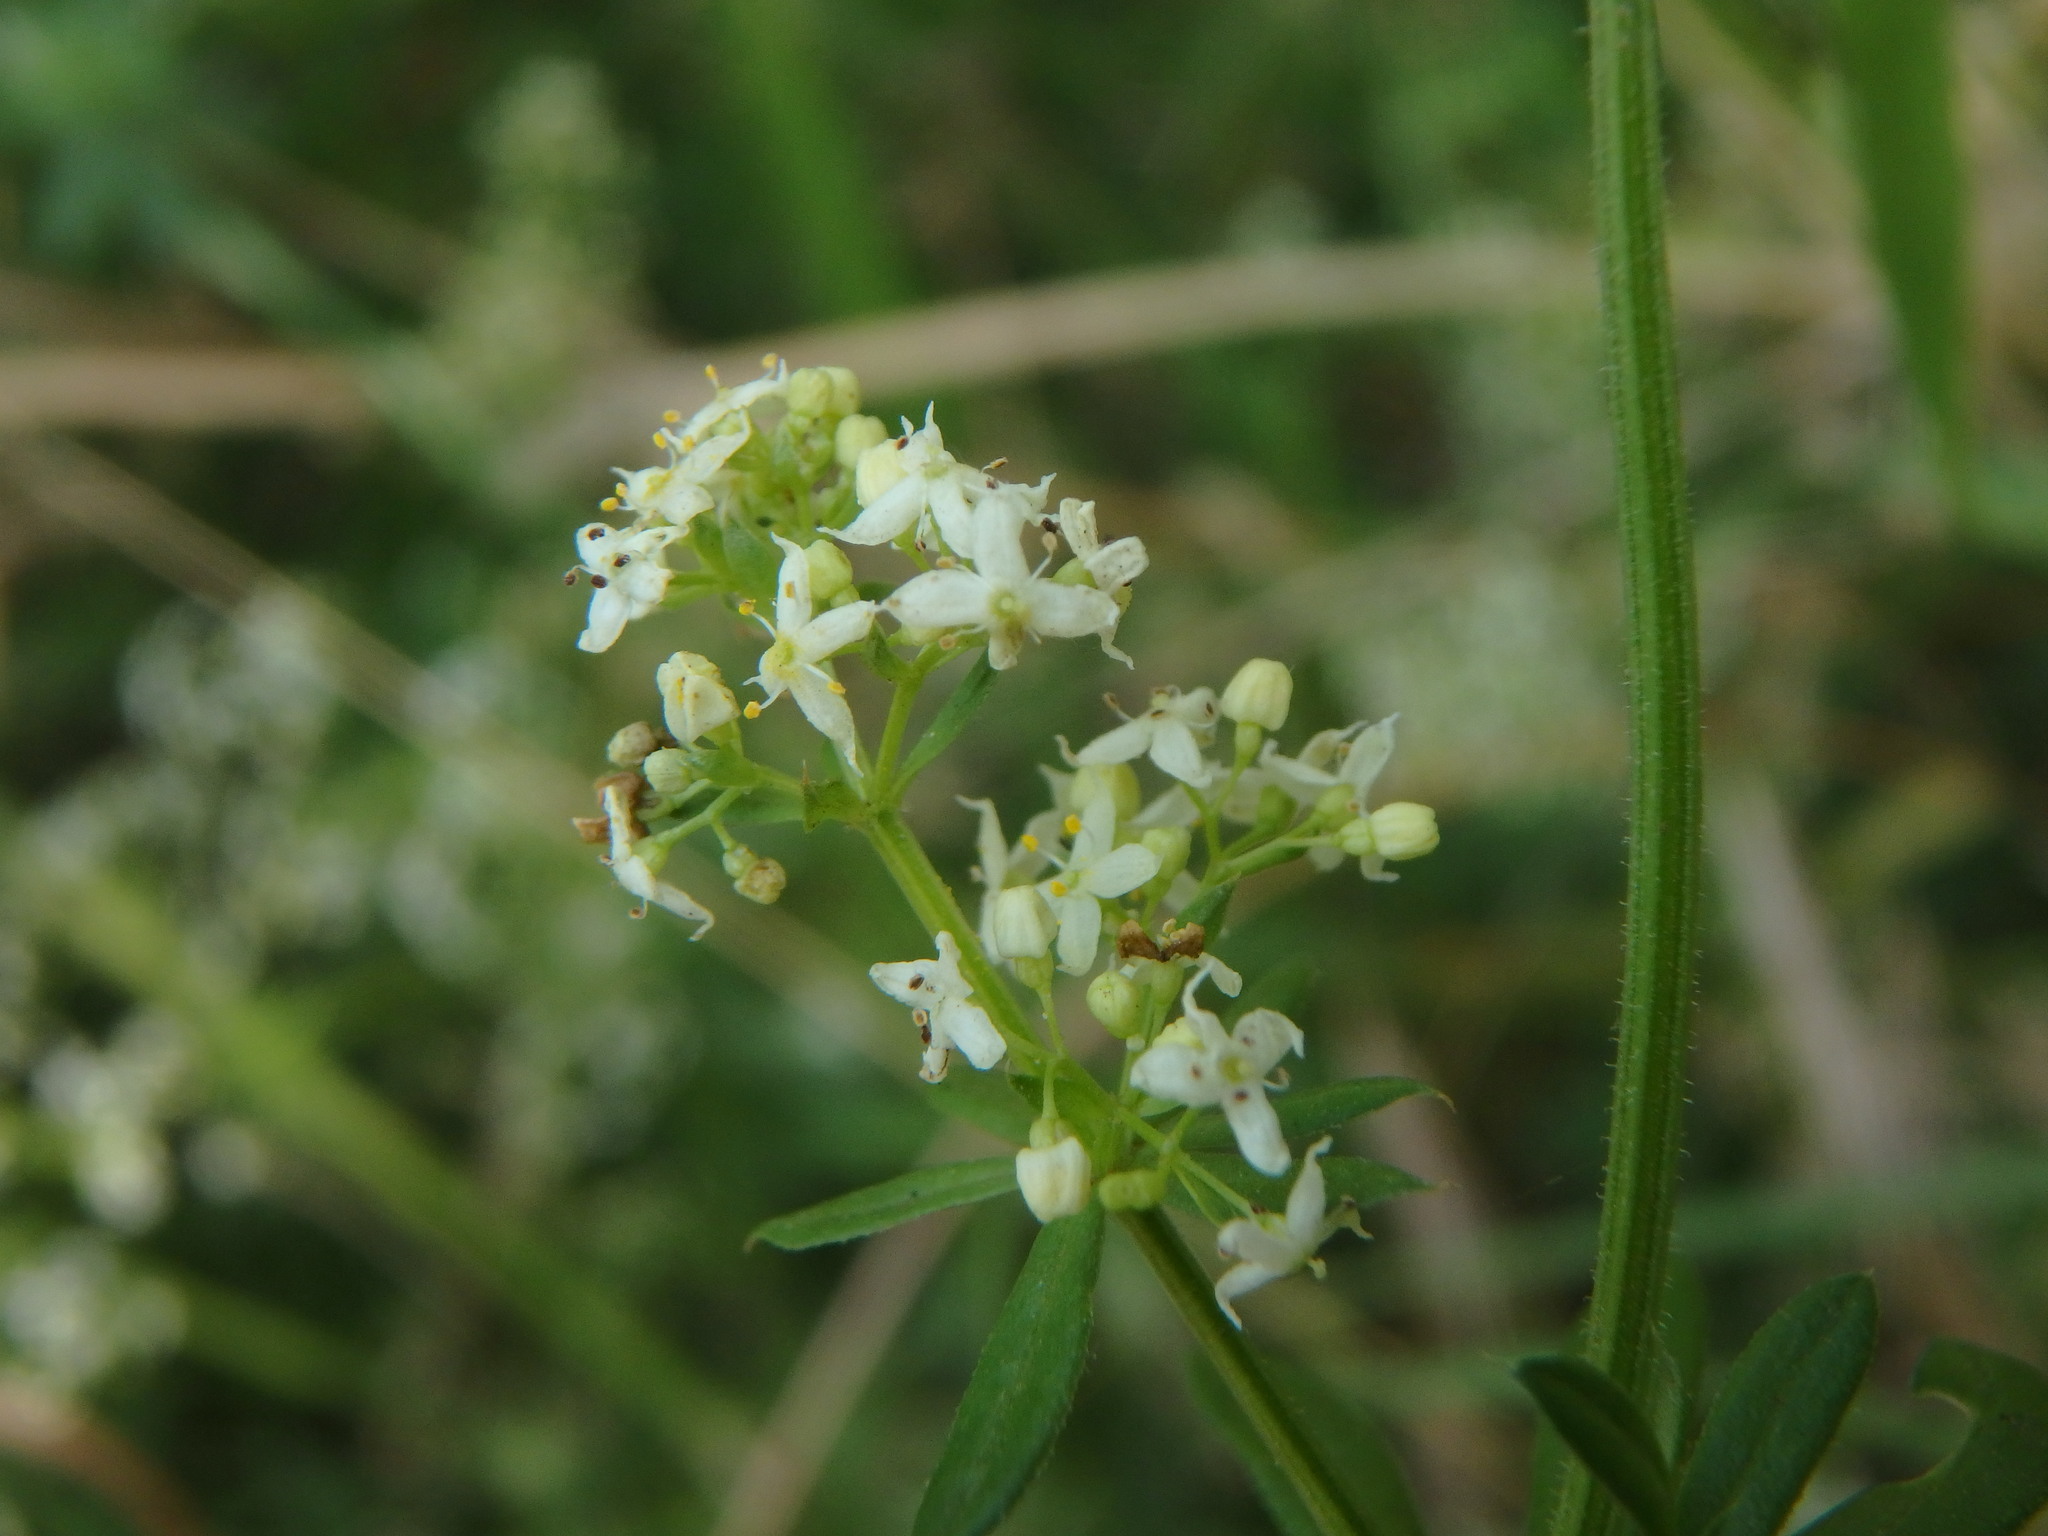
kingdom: Plantae
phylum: Tracheophyta
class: Magnoliopsida
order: Gentianales
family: Rubiaceae
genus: Galium
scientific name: Galium album
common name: White bedstraw
